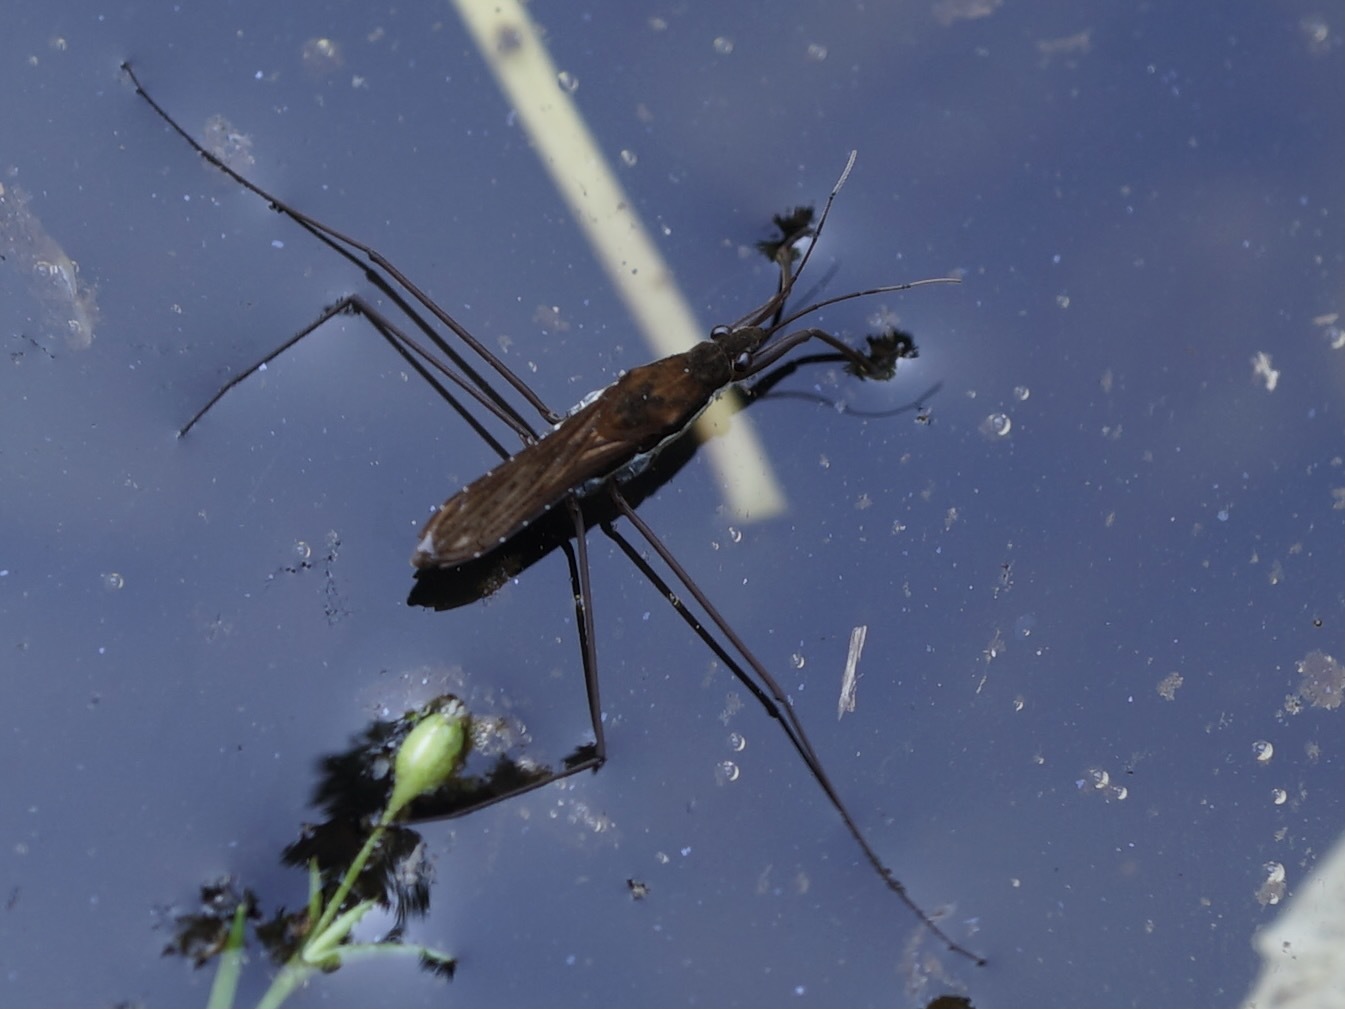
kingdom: Animalia
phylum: Arthropoda
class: Insecta
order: Hemiptera
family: Gerridae
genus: Gerris
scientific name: Gerris gracilicornis
